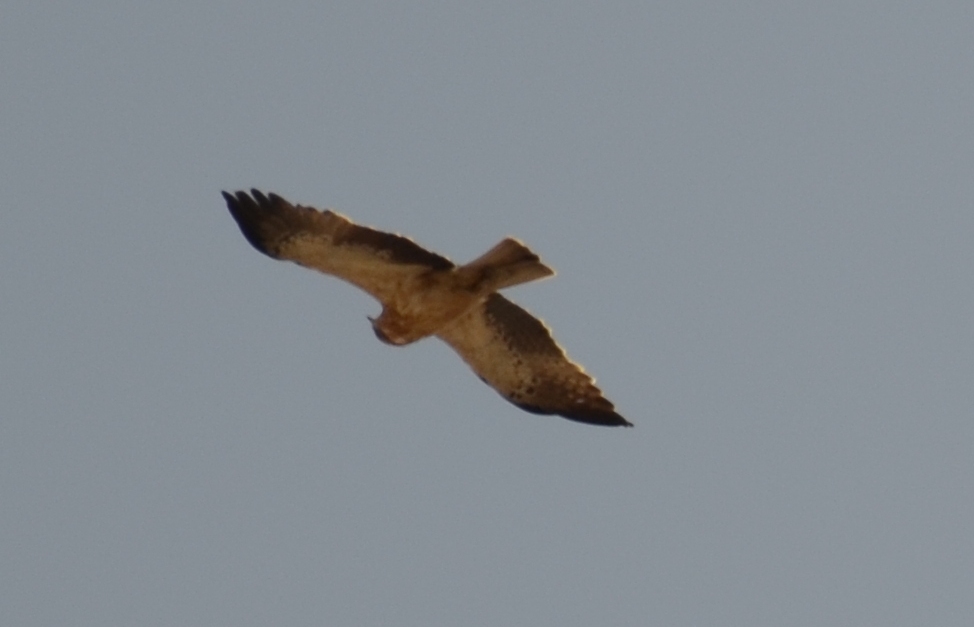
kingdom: Animalia
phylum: Chordata
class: Aves
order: Accipitriformes
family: Accipitridae
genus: Hieraaetus
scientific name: Hieraaetus pennatus
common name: Booted eagle
